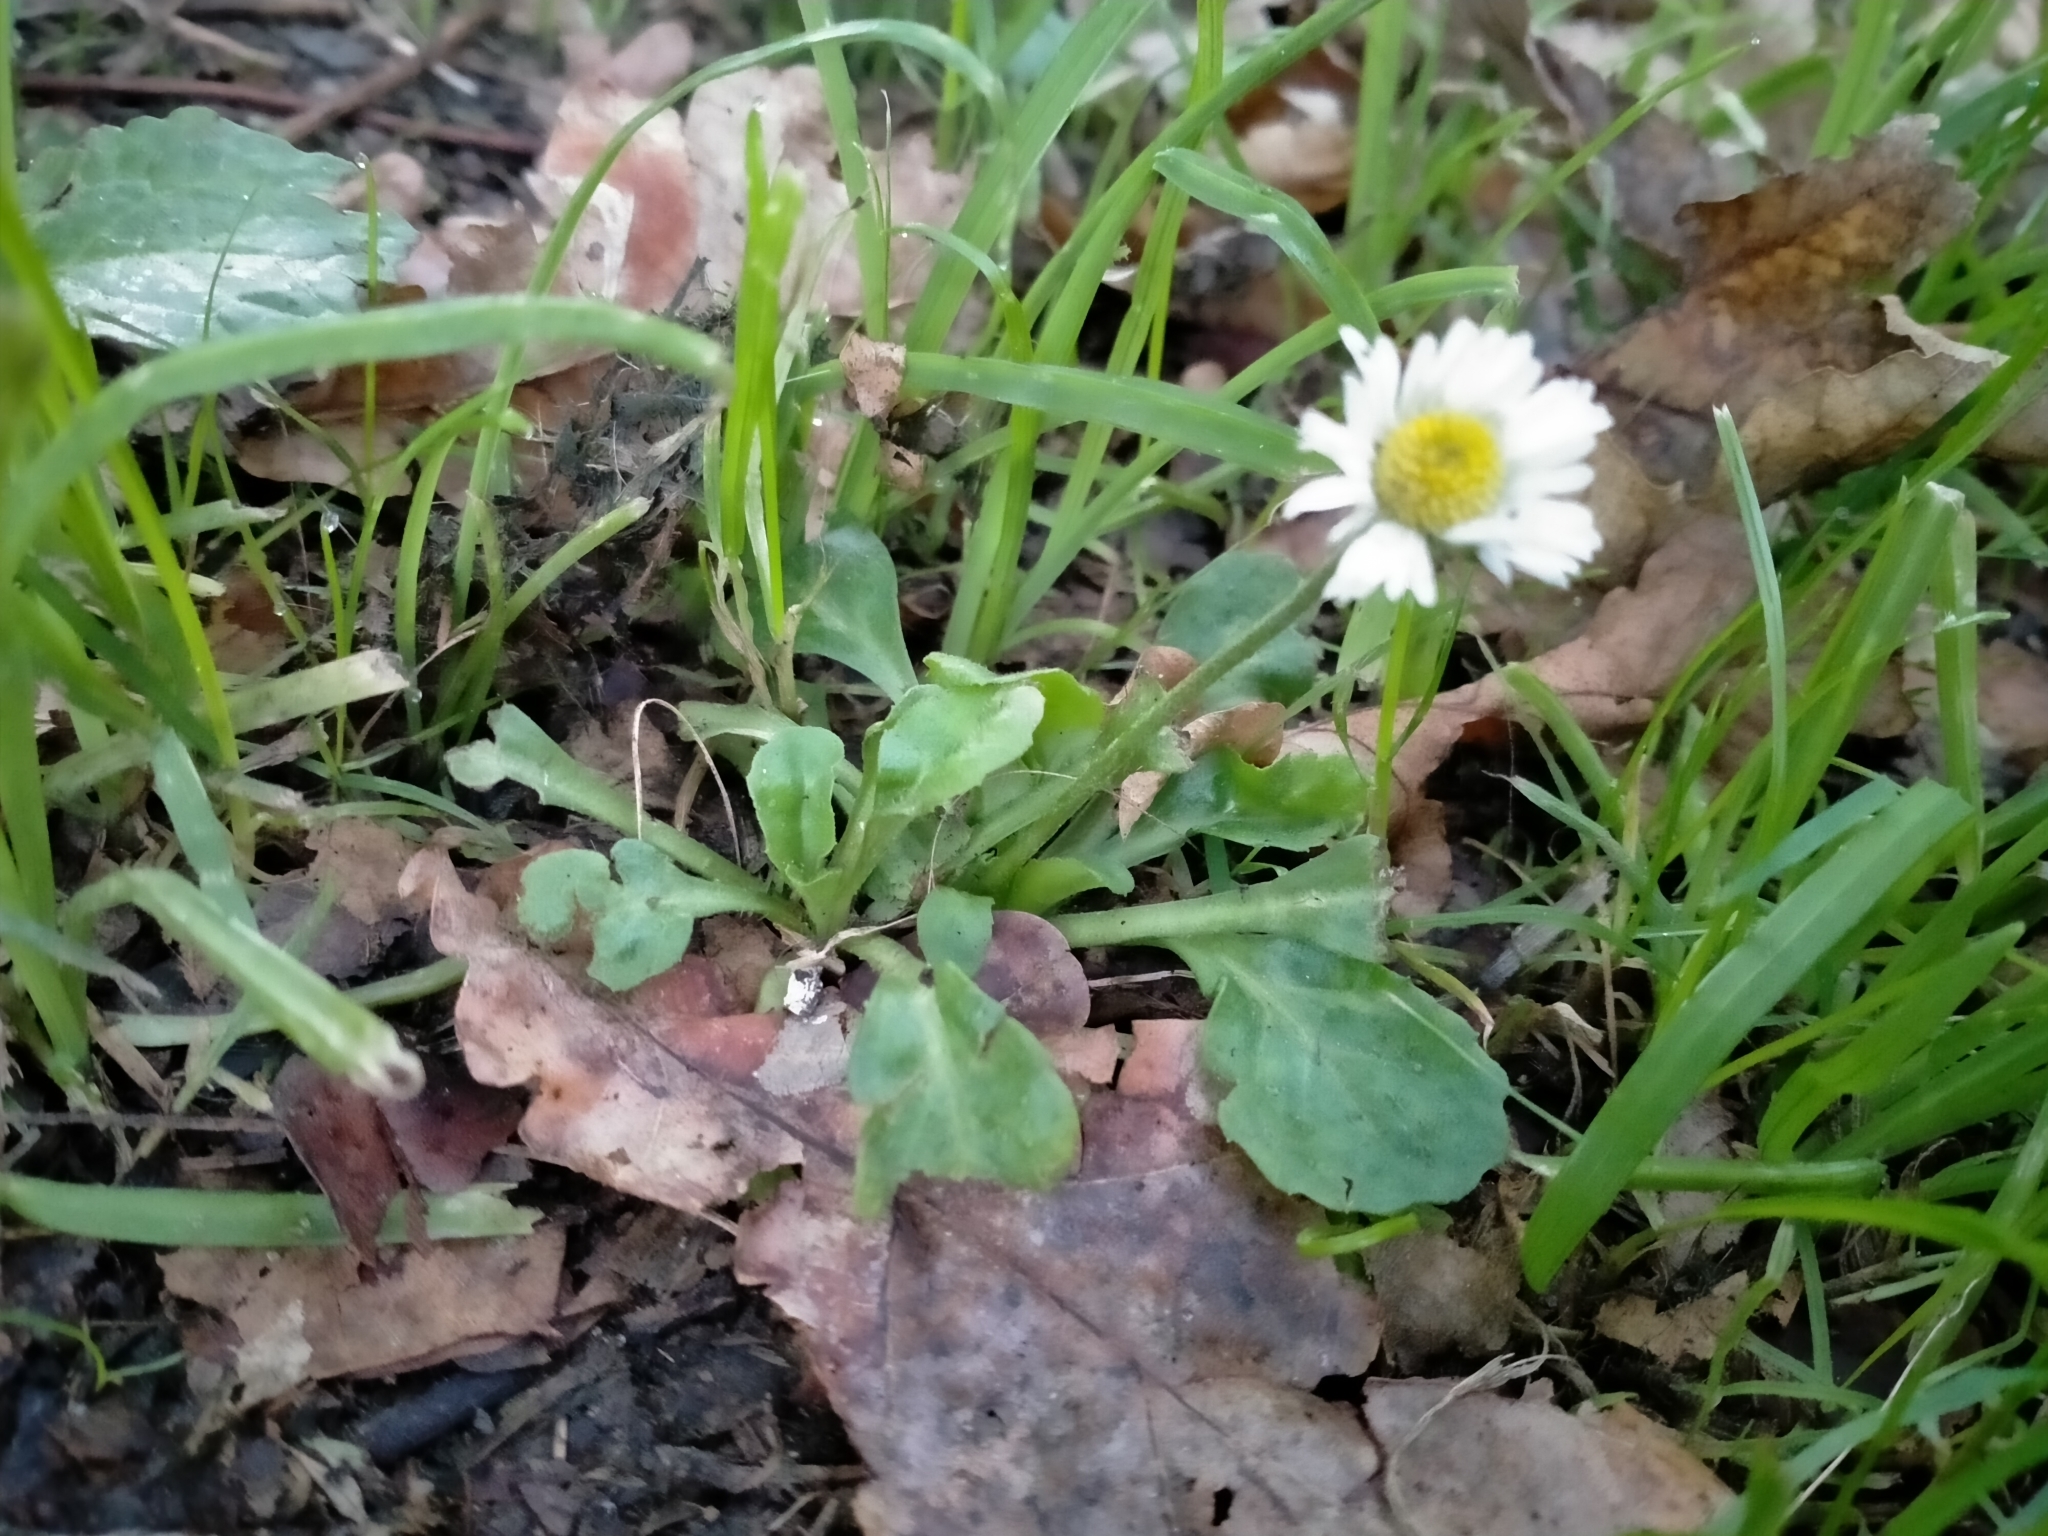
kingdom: Plantae
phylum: Tracheophyta
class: Magnoliopsida
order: Asterales
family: Asteraceae
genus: Bellis
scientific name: Bellis perennis
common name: Lawndaisy
